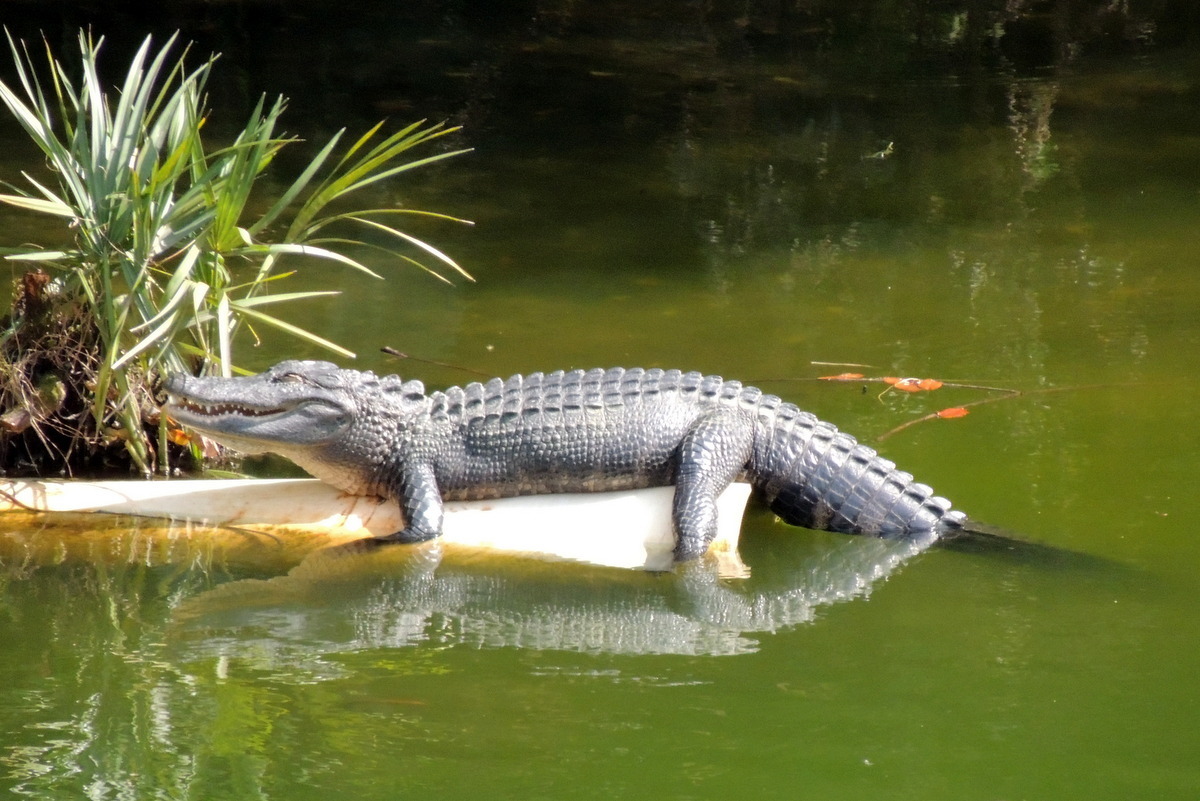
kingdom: Animalia
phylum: Chordata
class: Crocodylia
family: Alligatoridae
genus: Alligator
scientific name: Alligator mississippiensis
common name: American alligator
